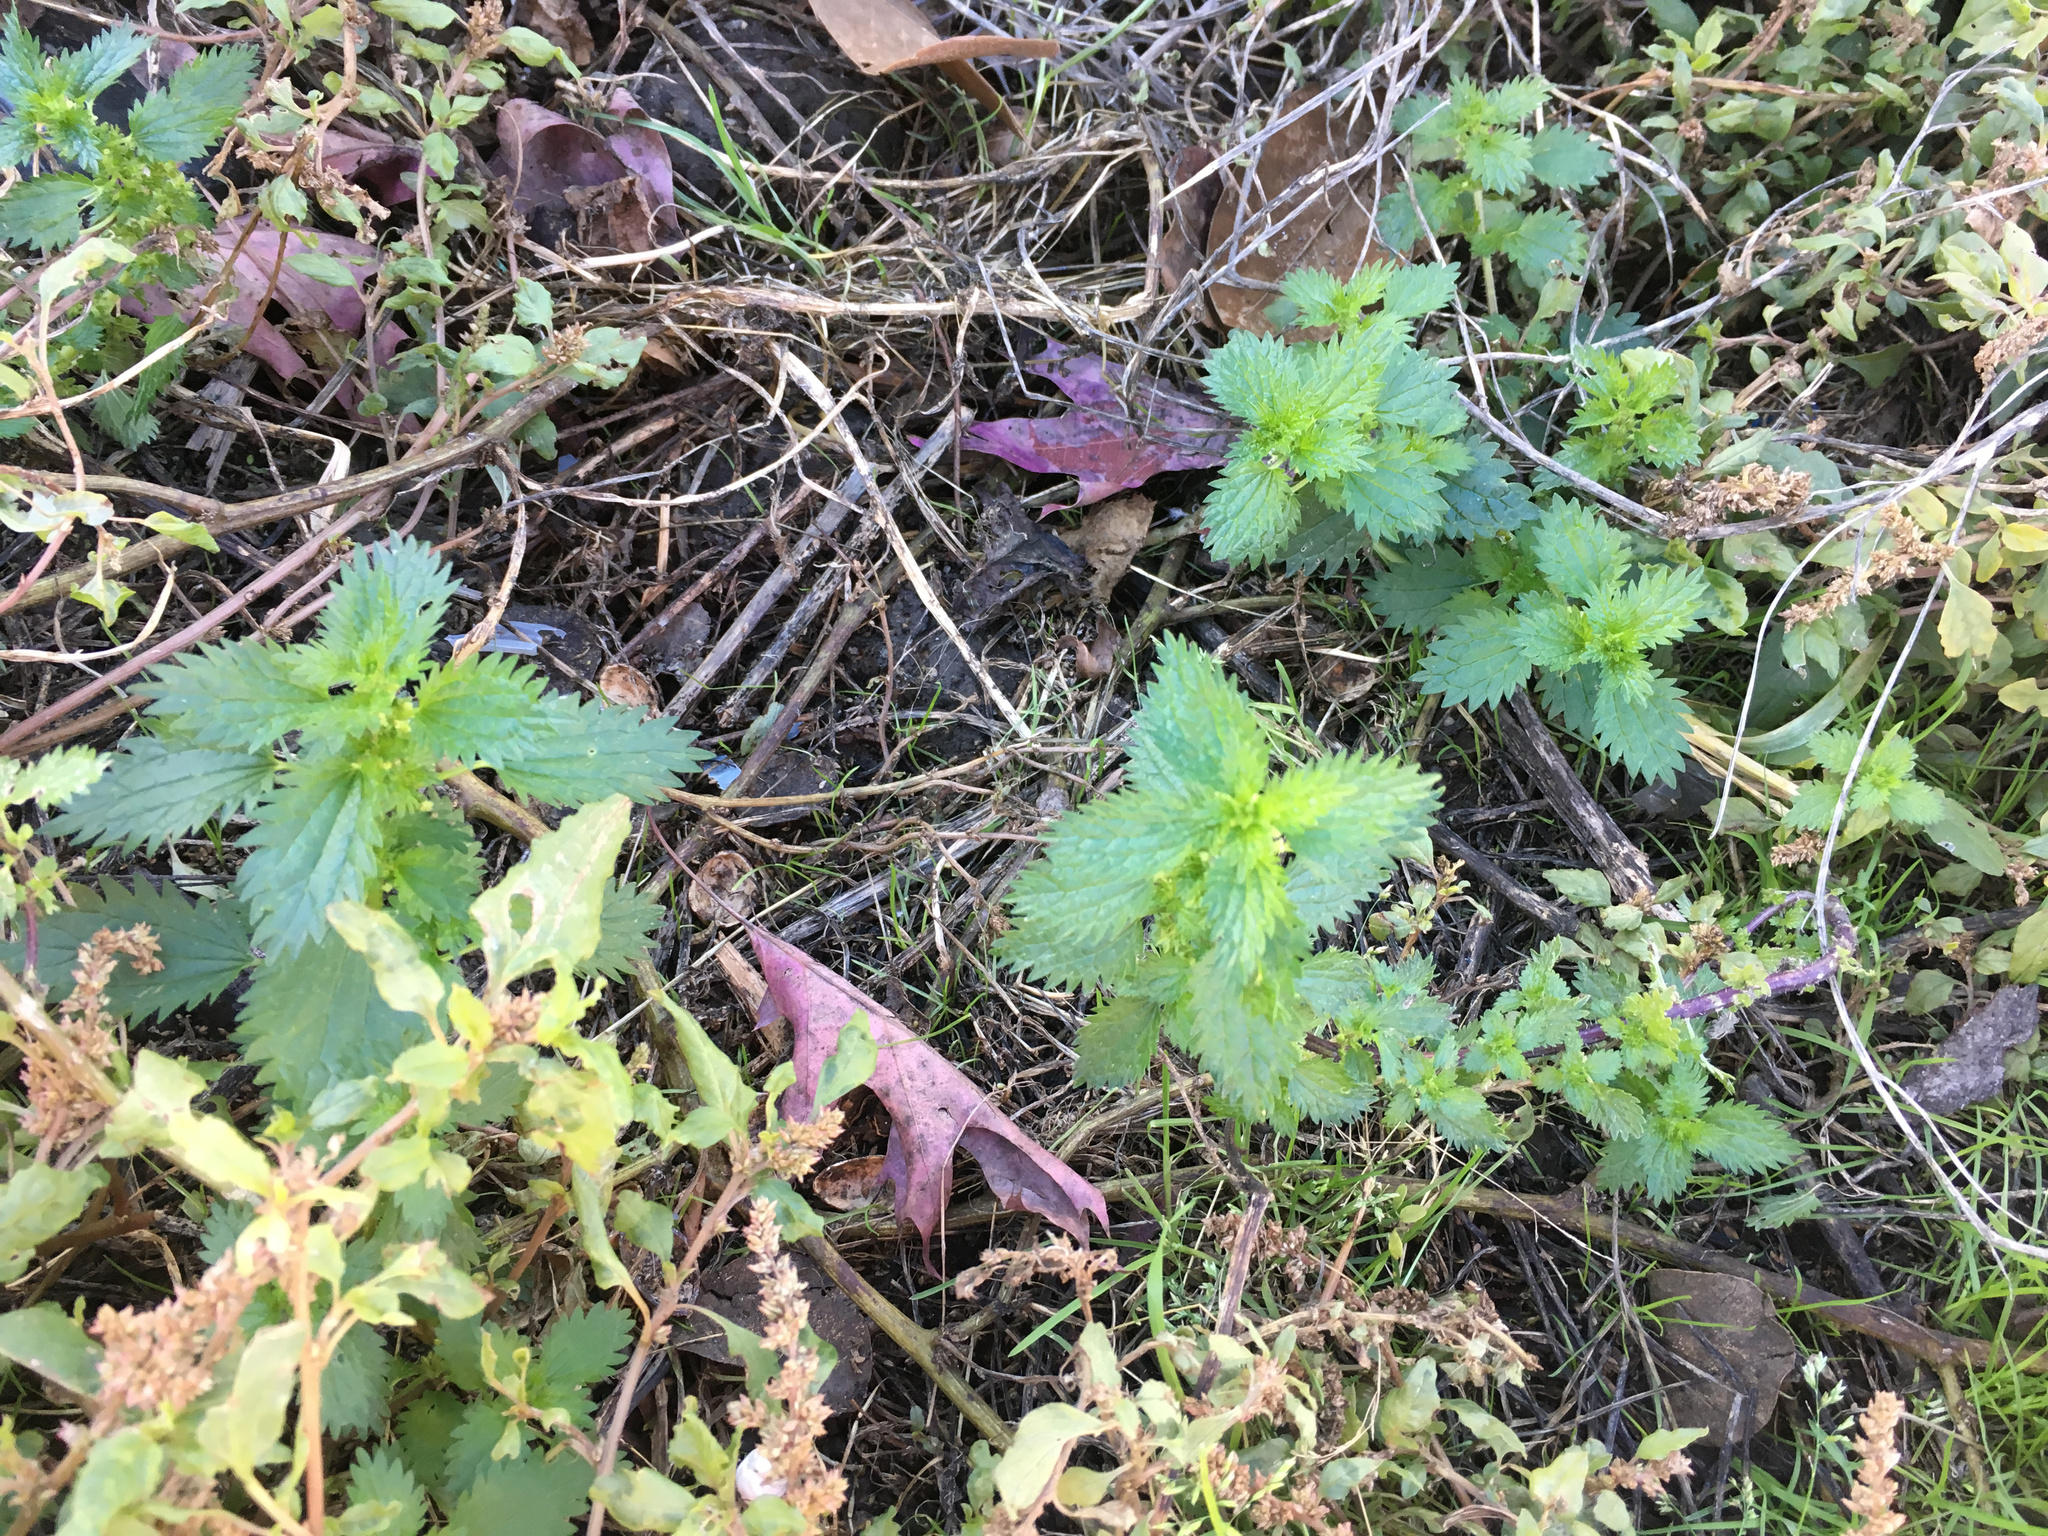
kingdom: Plantae
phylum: Tracheophyta
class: Magnoliopsida
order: Rosales
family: Urticaceae
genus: Urtica
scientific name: Urtica urens
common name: Dwarf nettle
